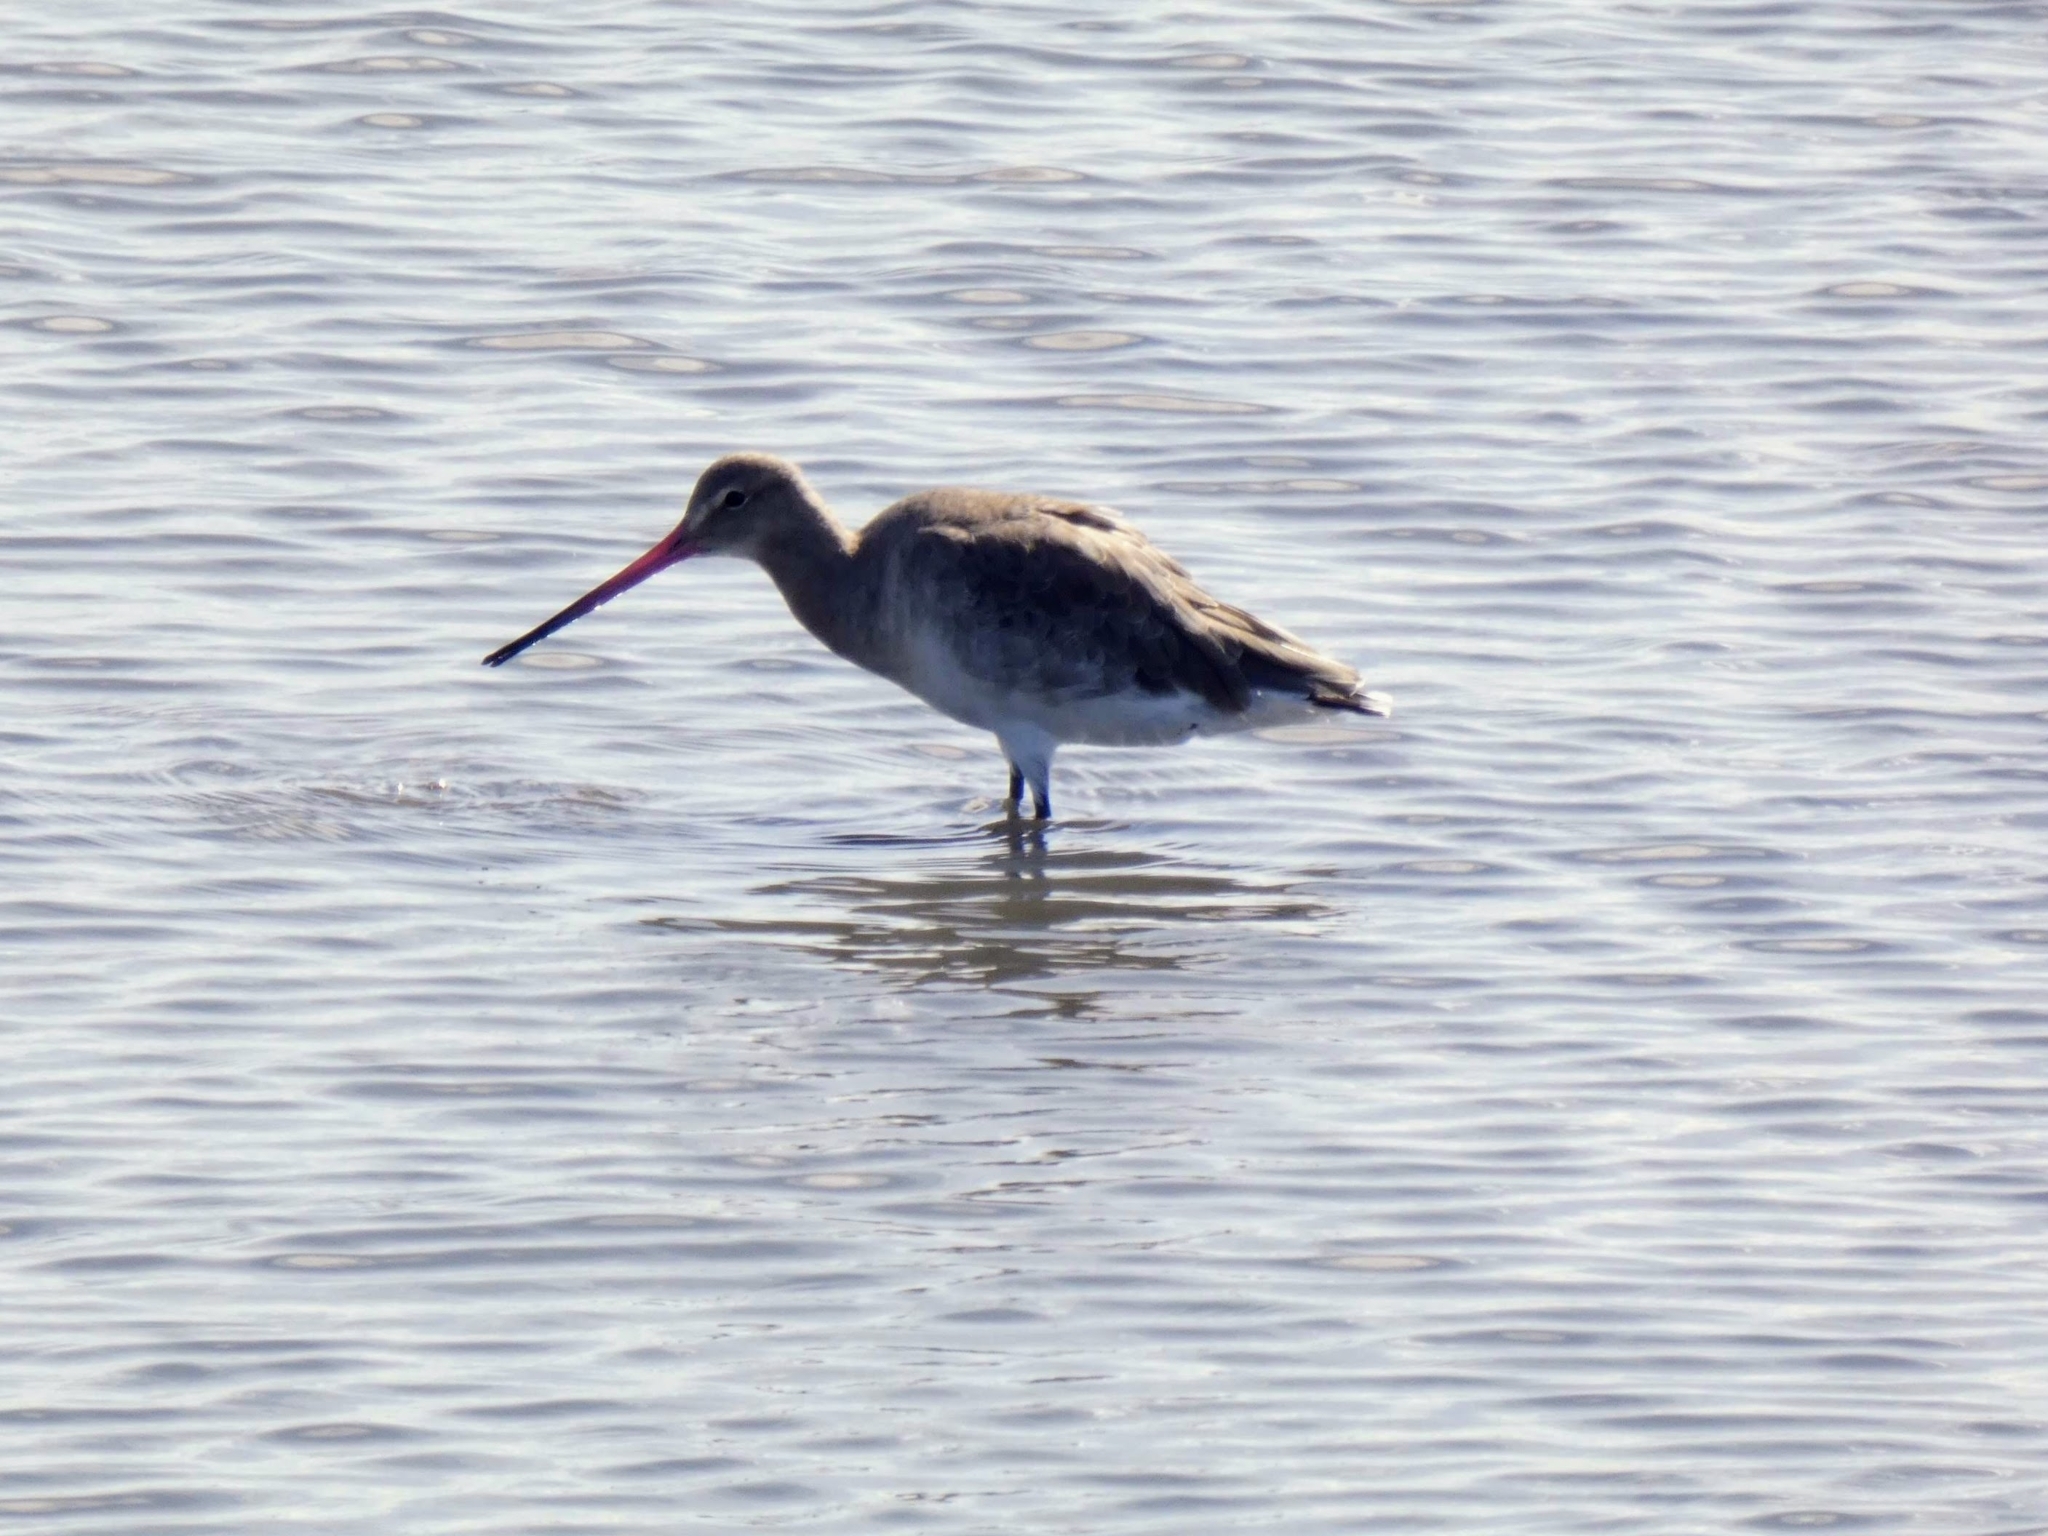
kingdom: Animalia
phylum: Chordata
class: Aves
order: Charadriiformes
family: Scolopacidae
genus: Limosa
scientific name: Limosa limosa
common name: Black-tailed godwit
